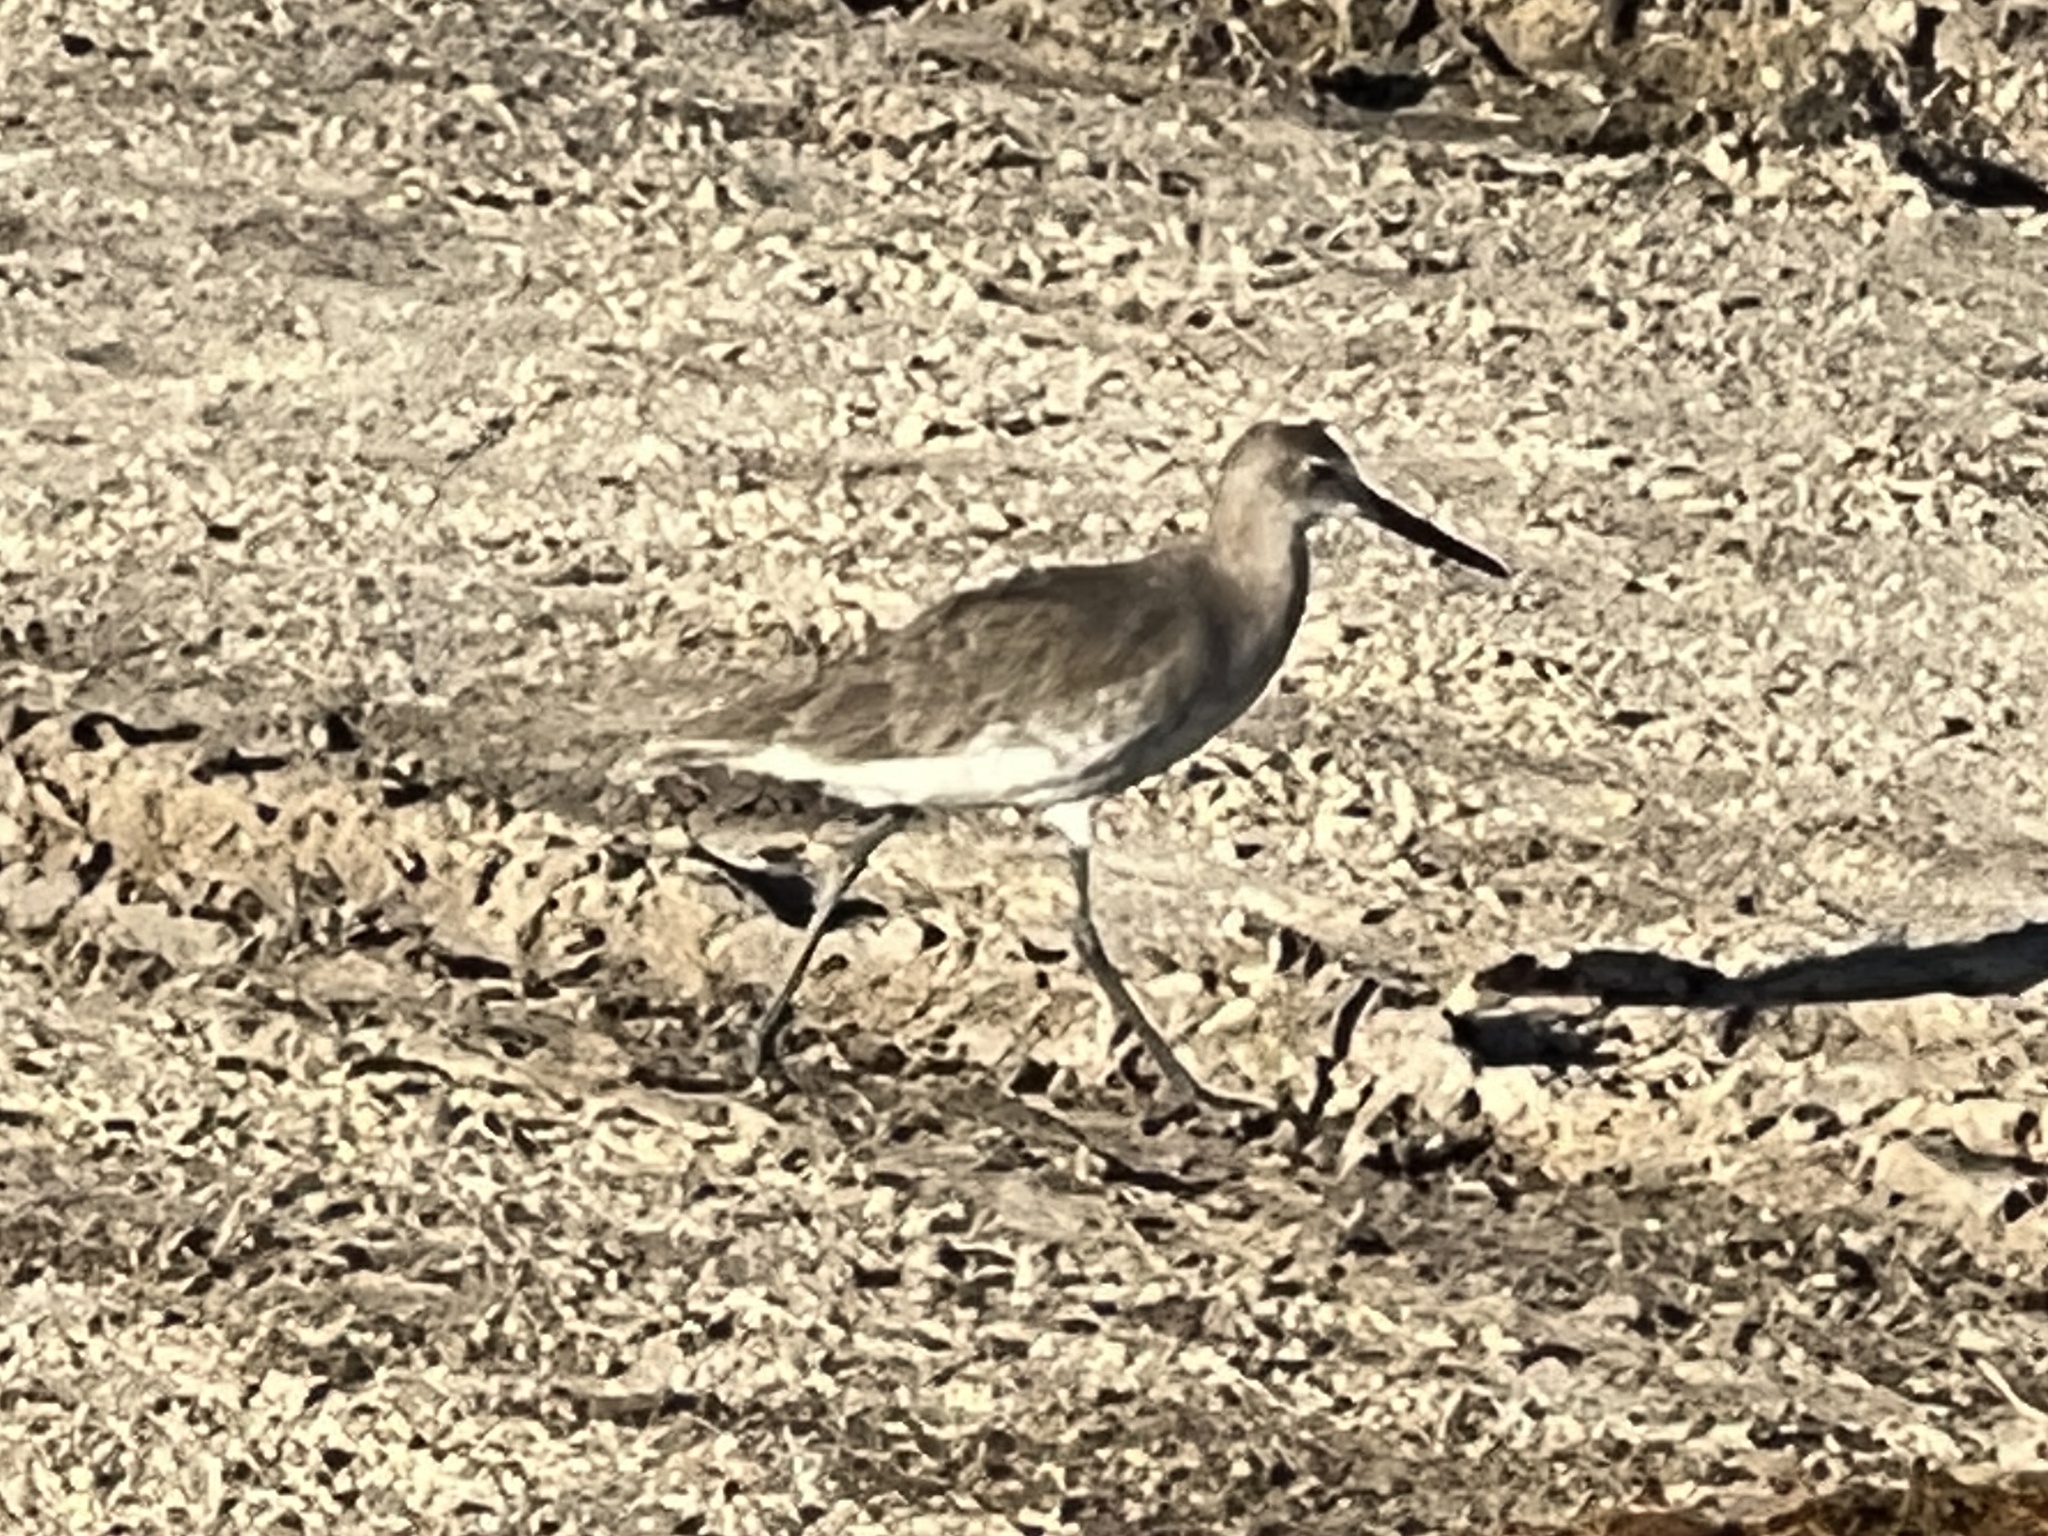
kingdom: Animalia
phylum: Chordata
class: Aves
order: Charadriiformes
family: Scolopacidae
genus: Tringa
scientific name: Tringa semipalmata
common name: Willet
